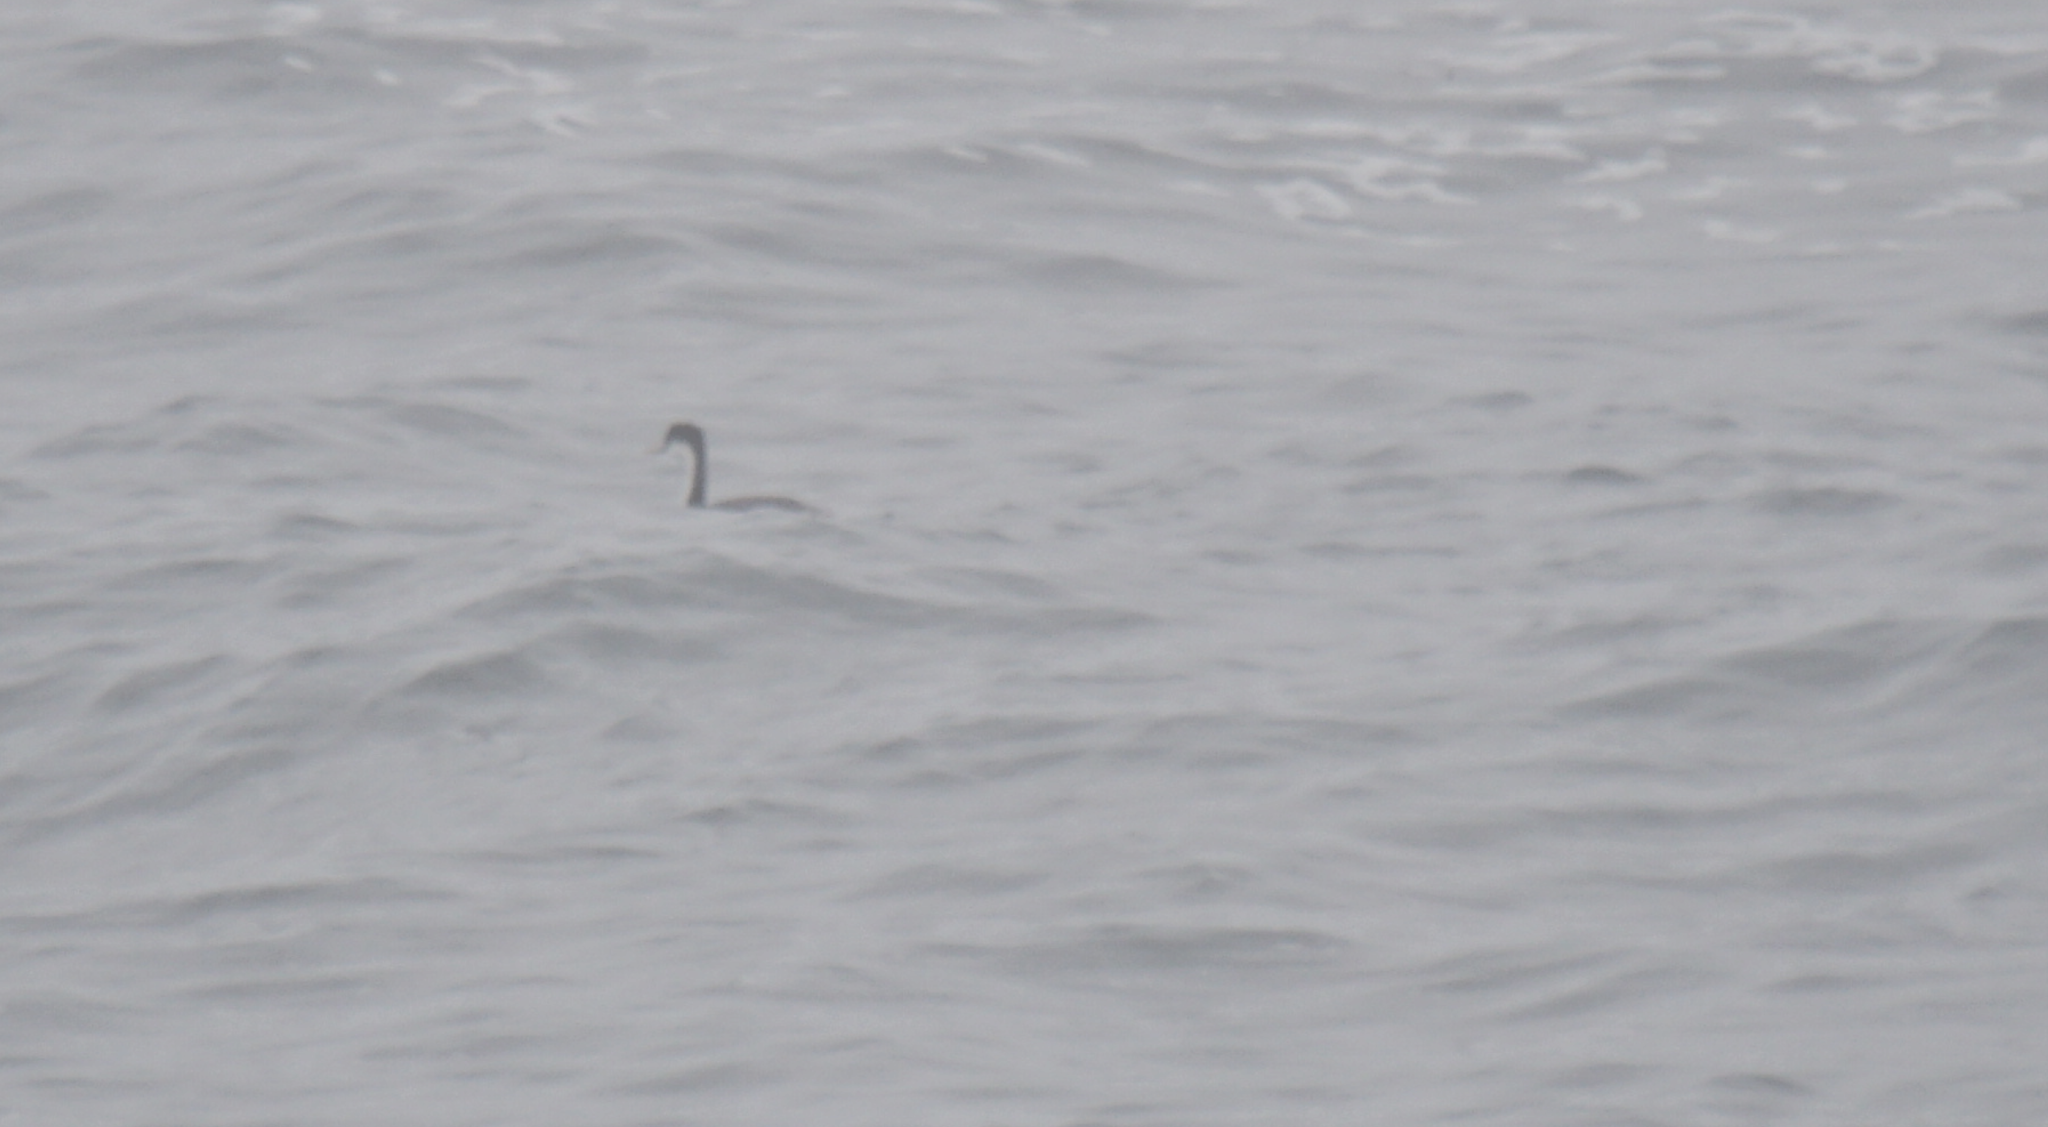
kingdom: Animalia
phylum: Chordata
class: Aves
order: Podicipediformes
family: Podicipedidae
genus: Aechmophorus
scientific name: Aechmophorus occidentalis
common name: Western grebe
